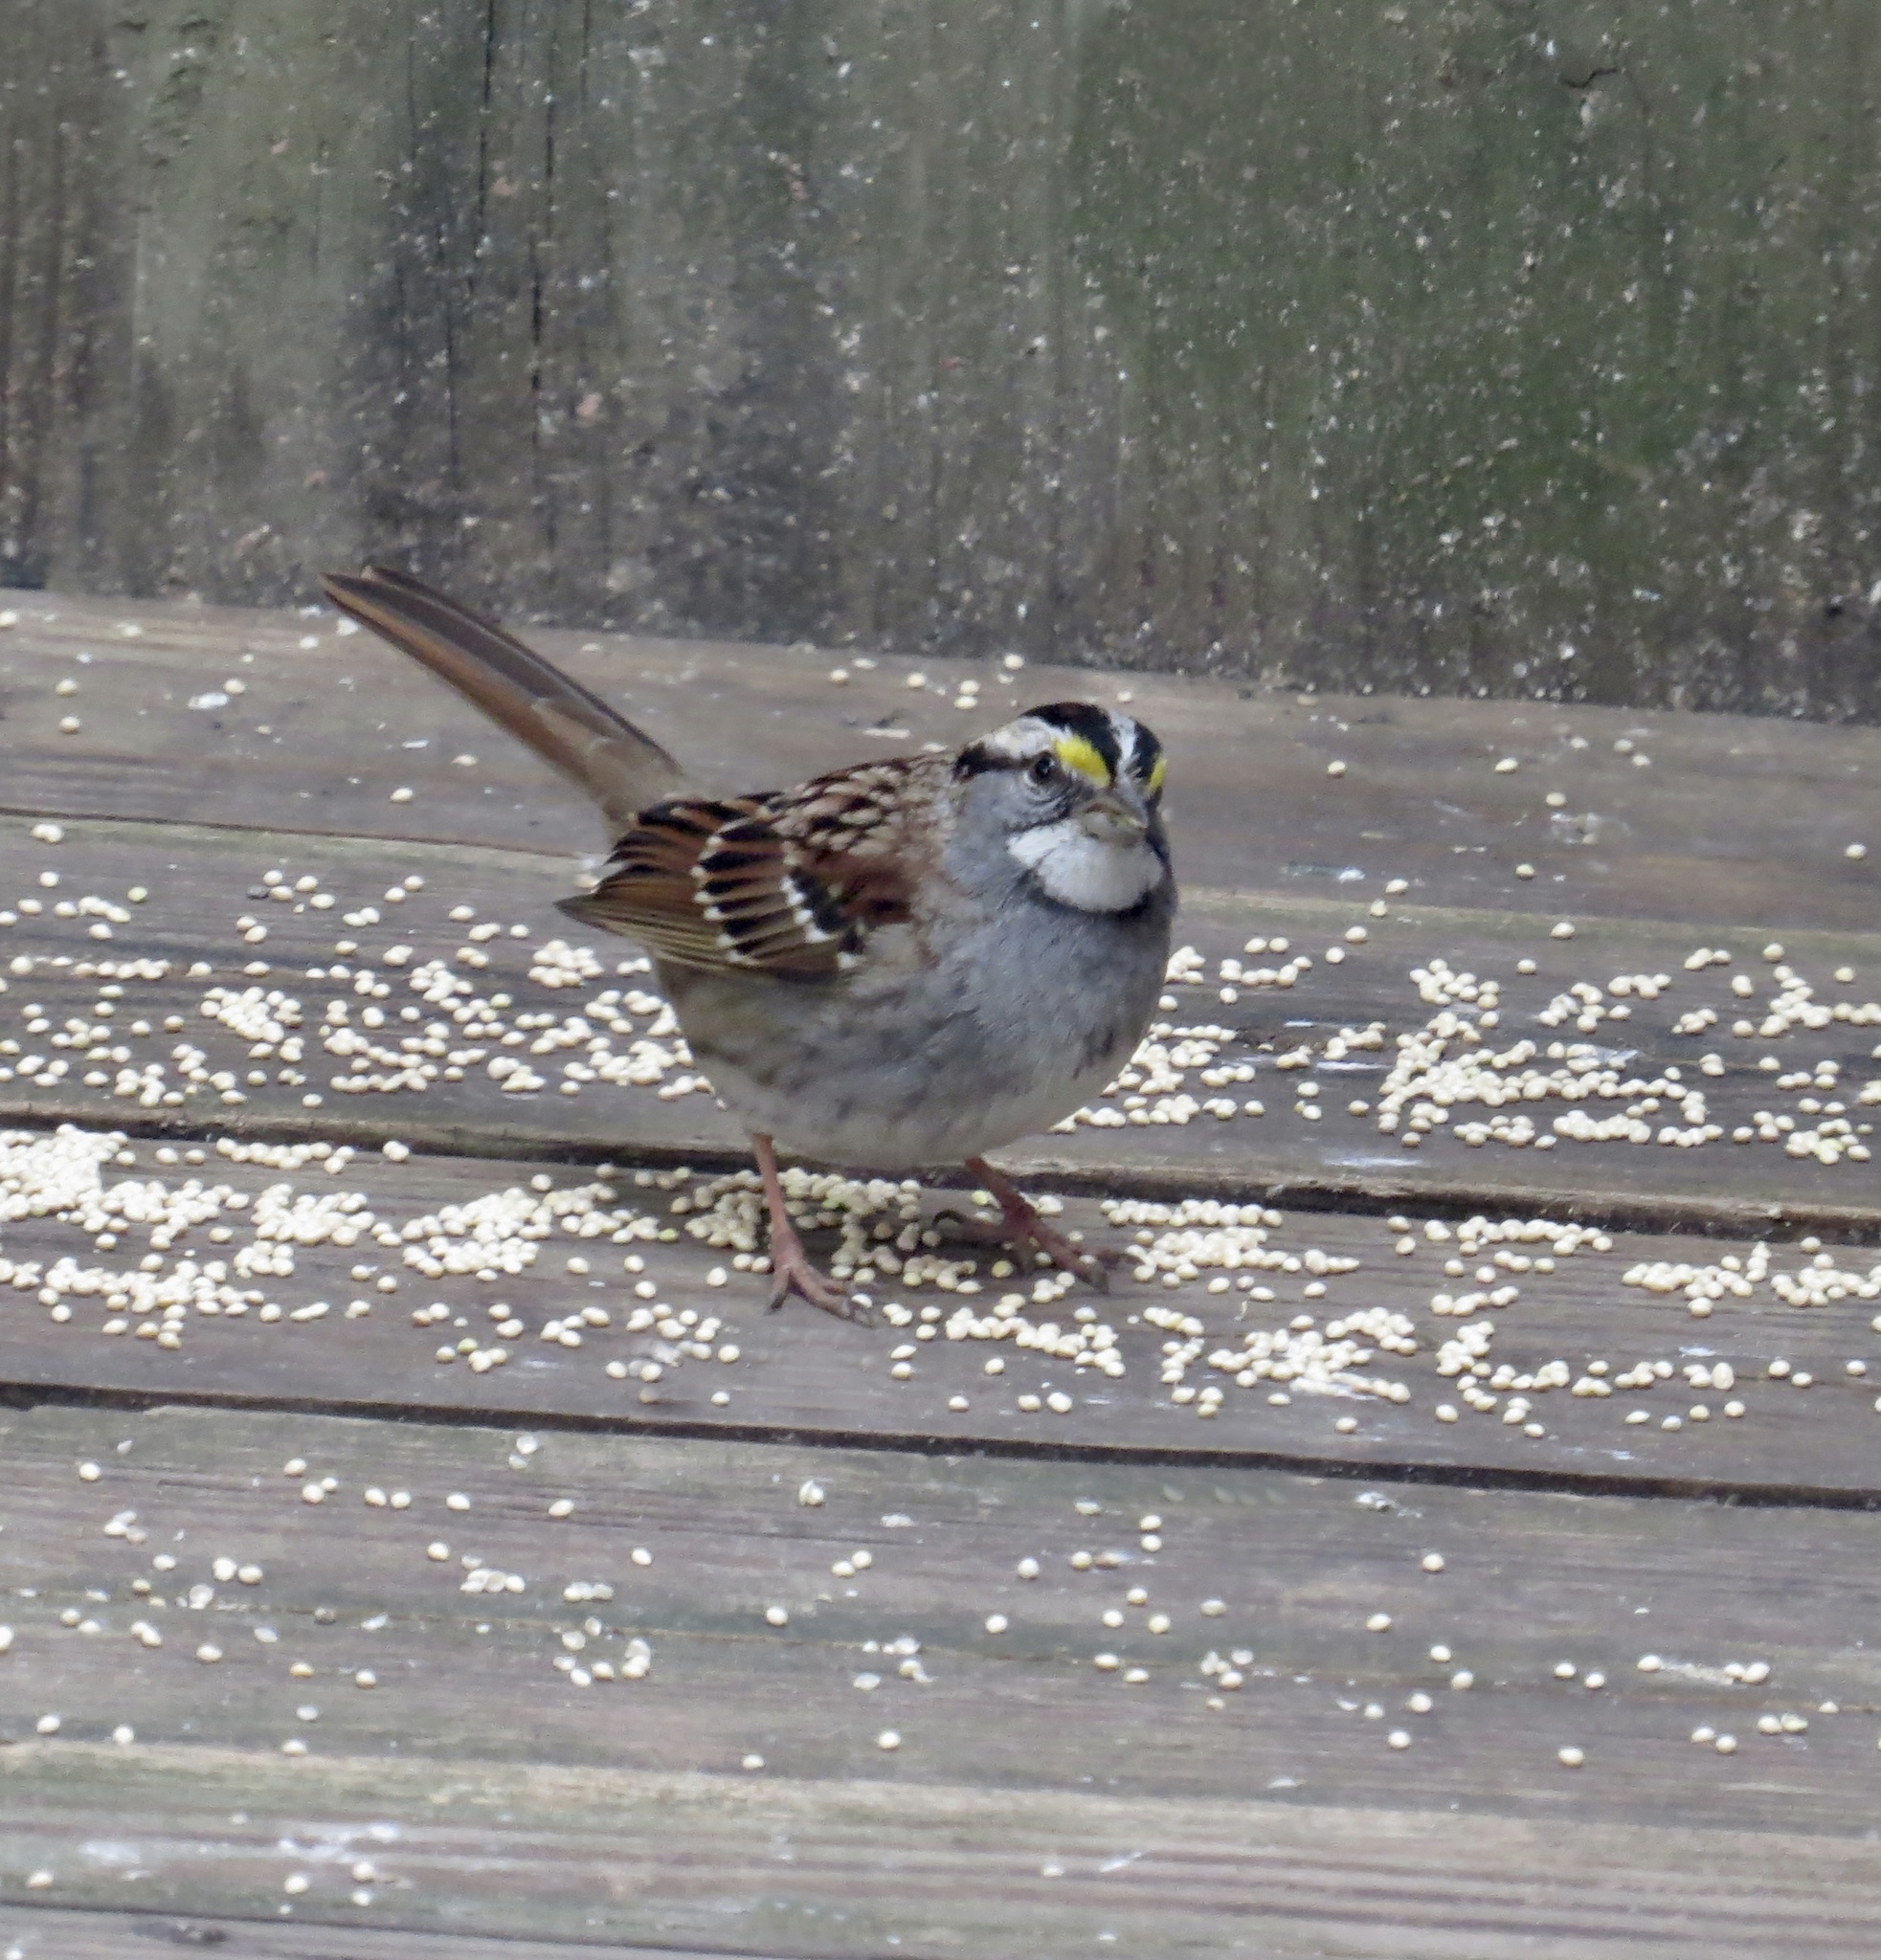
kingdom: Animalia
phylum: Chordata
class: Aves
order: Passeriformes
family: Passerellidae
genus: Zonotrichia
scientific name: Zonotrichia albicollis
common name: White-throated sparrow
